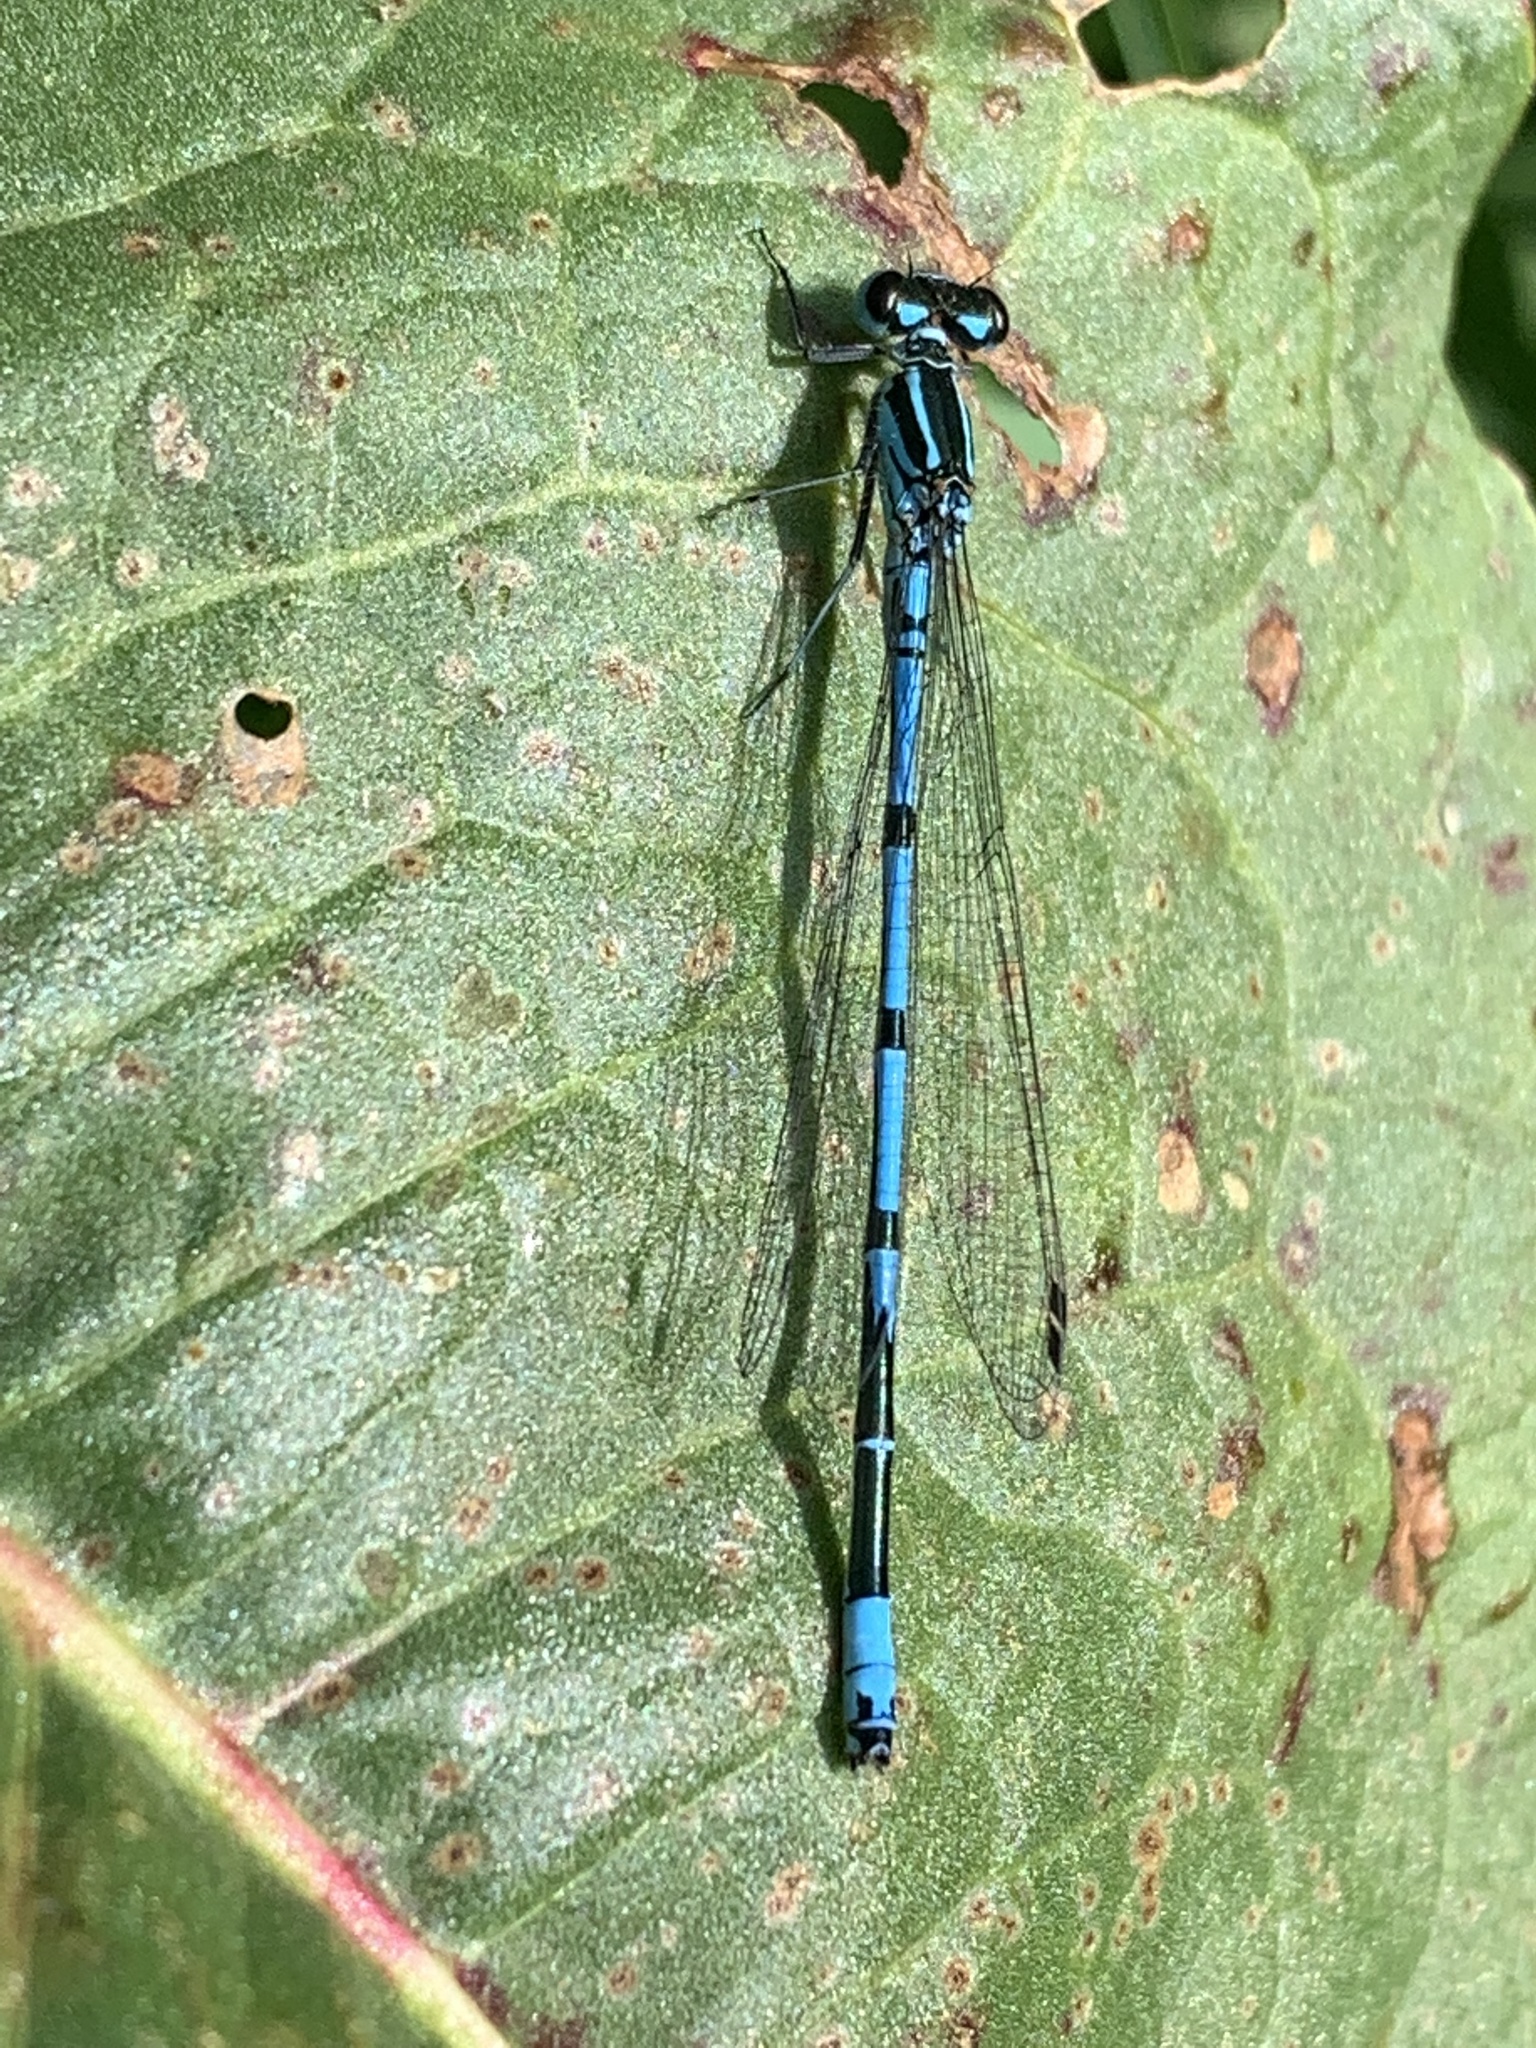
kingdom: Animalia
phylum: Arthropoda
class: Insecta
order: Odonata
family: Coenagrionidae
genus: Coenagrion
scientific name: Coenagrion puella
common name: Azure damselfly
